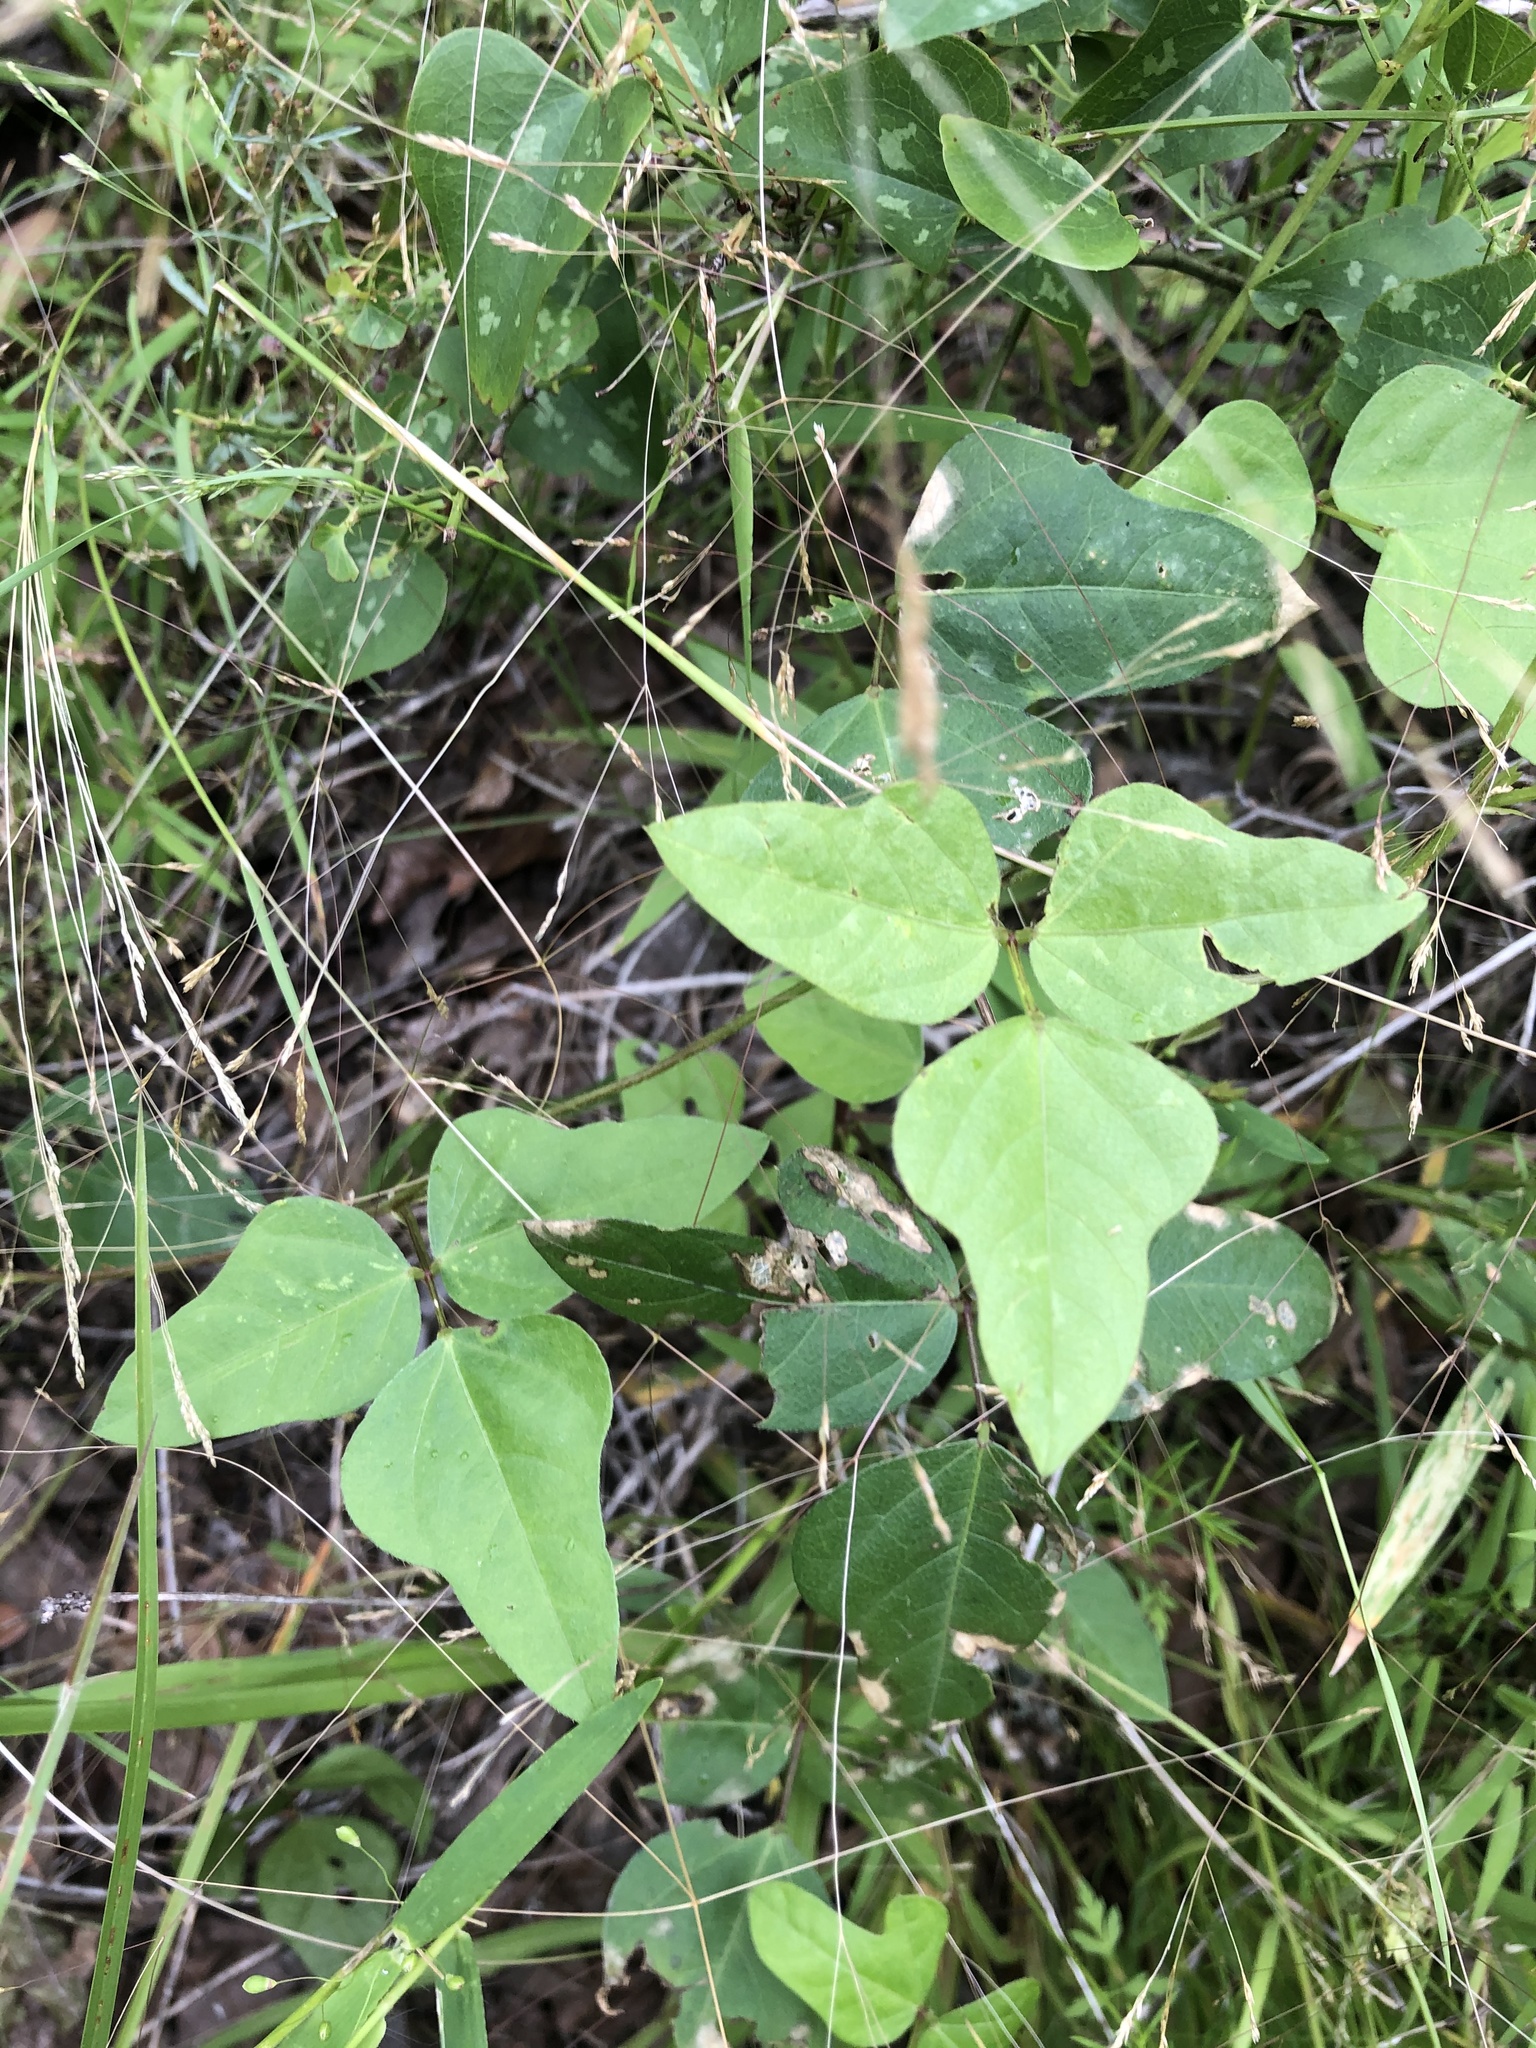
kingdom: Plantae
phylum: Tracheophyta
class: Magnoliopsida
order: Fabales
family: Fabaceae
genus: Strophostyles
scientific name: Strophostyles helvola
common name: Trailing wild bean
